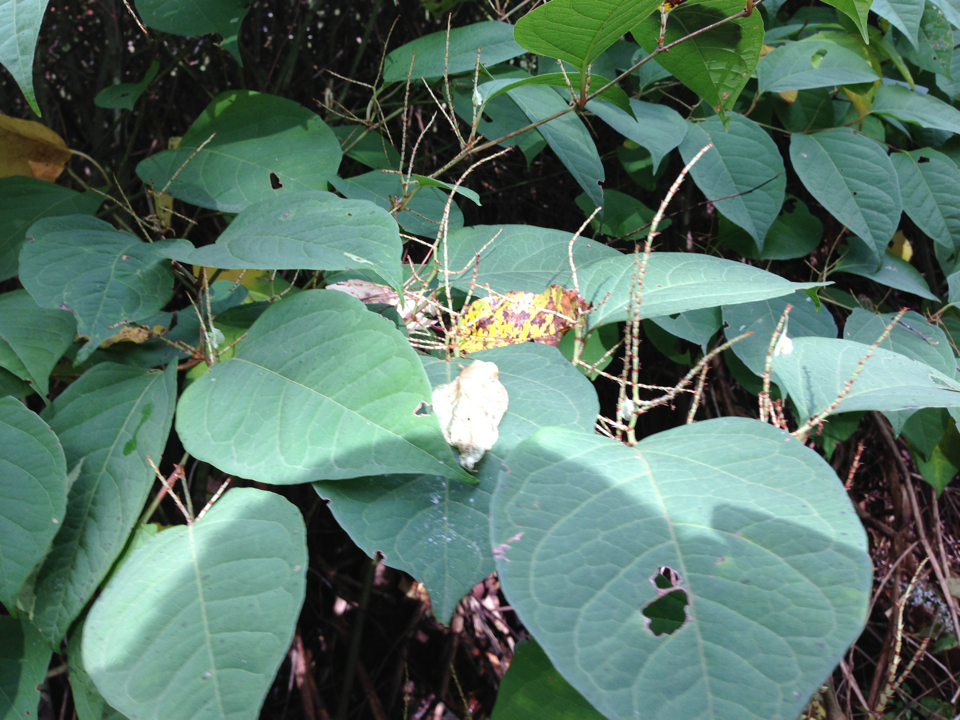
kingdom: Plantae
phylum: Tracheophyta
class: Magnoliopsida
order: Caryophyllales
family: Polygonaceae
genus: Reynoutria
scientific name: Reynoutria japonica
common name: Japanese knotweed
